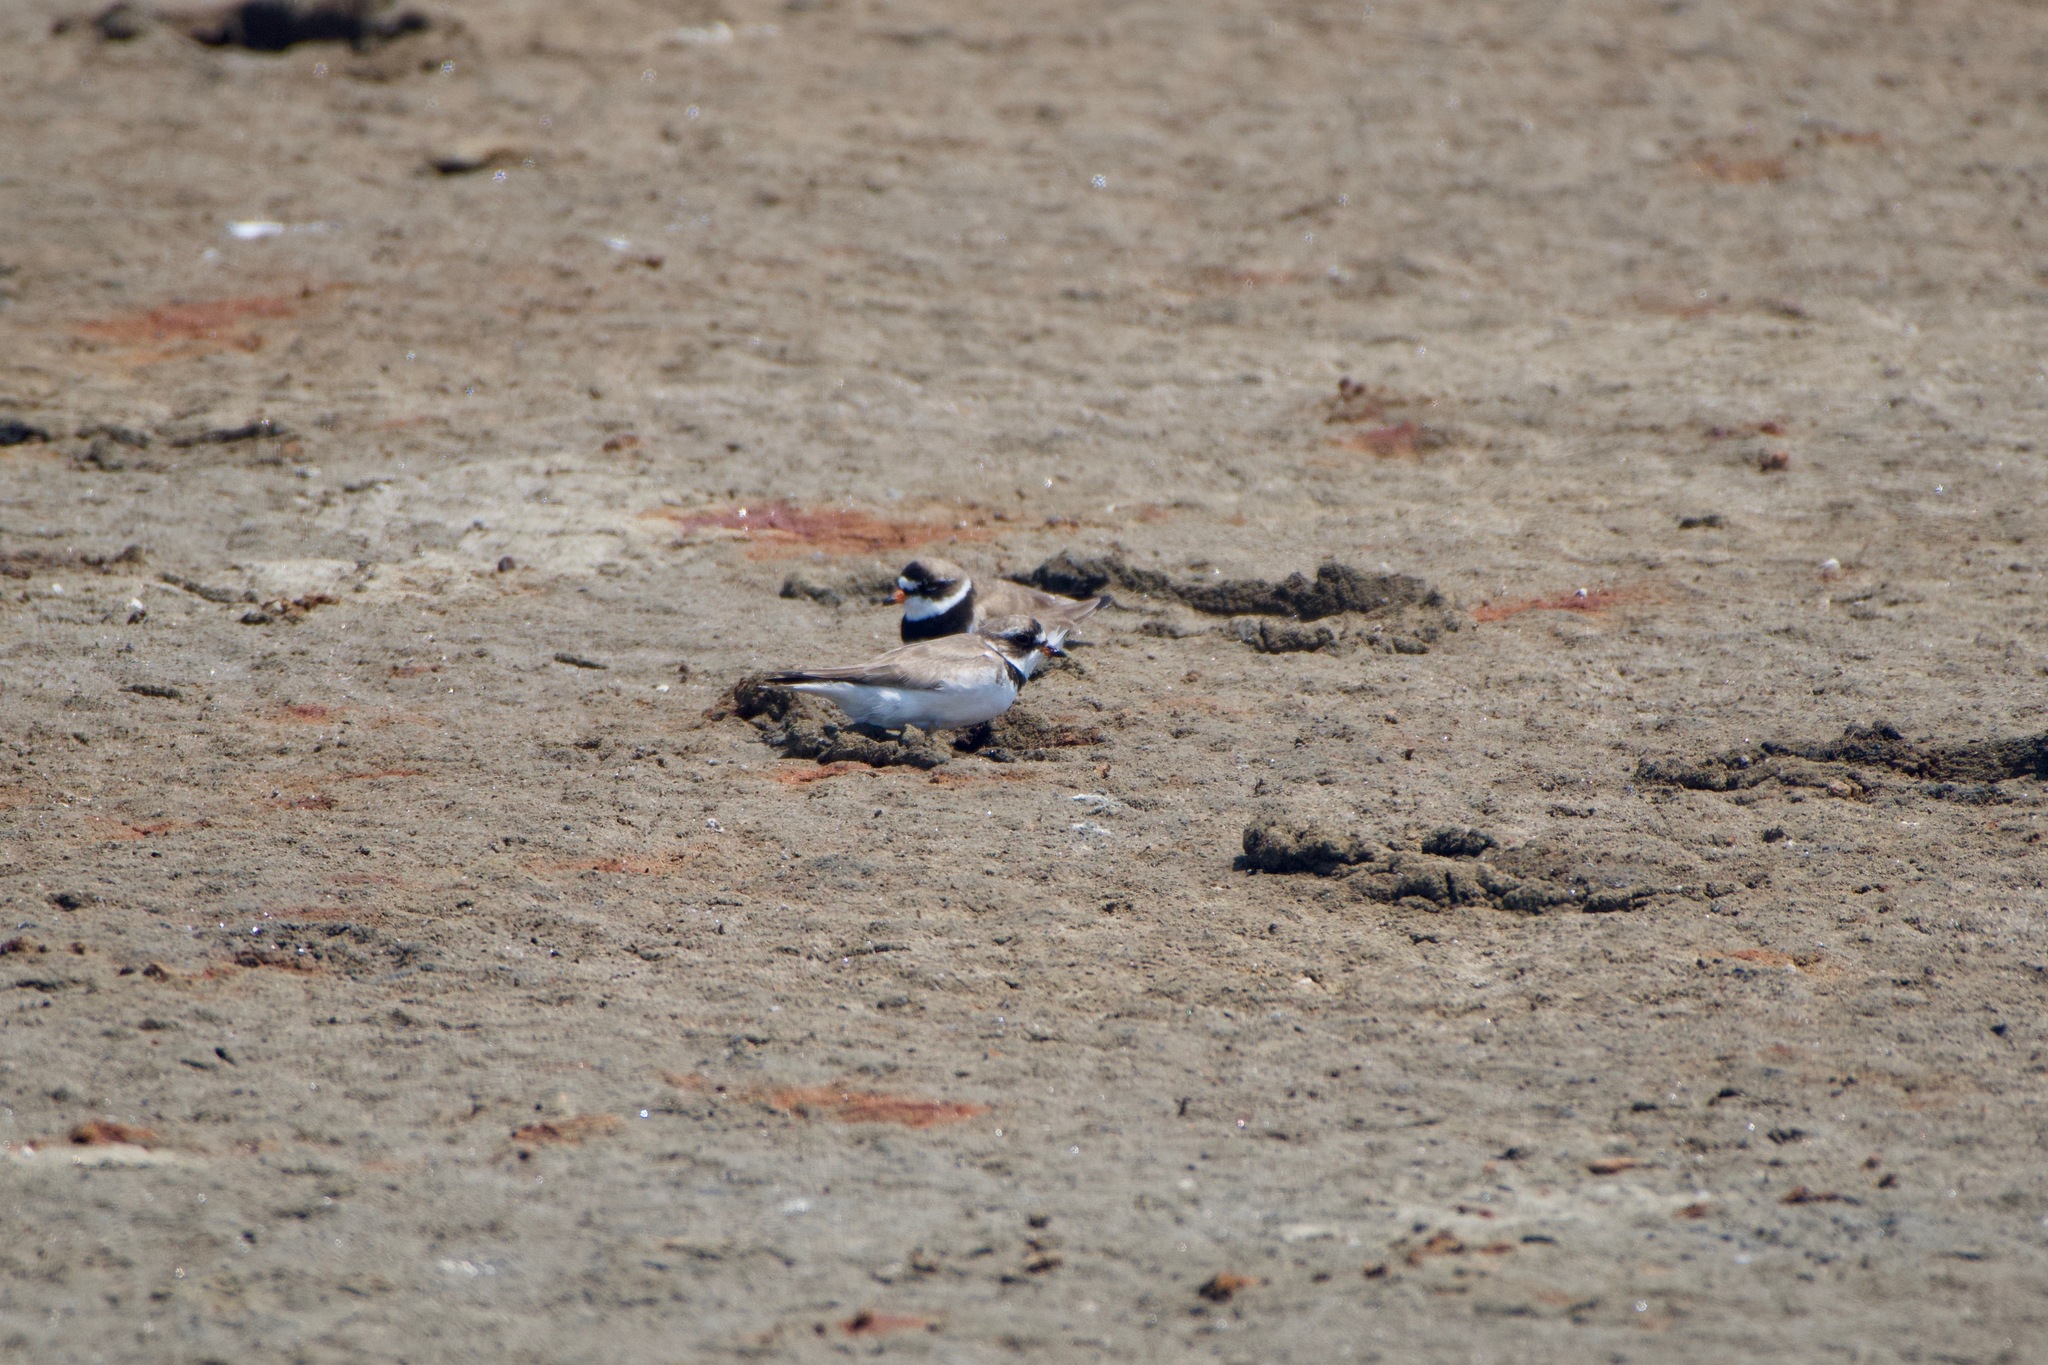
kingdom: Animalia
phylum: Chordata
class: Aves
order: Charadriiformes
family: Charadriidae
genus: Charadrius
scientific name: Charadrius semipalmatus
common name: Semipalmated plover
